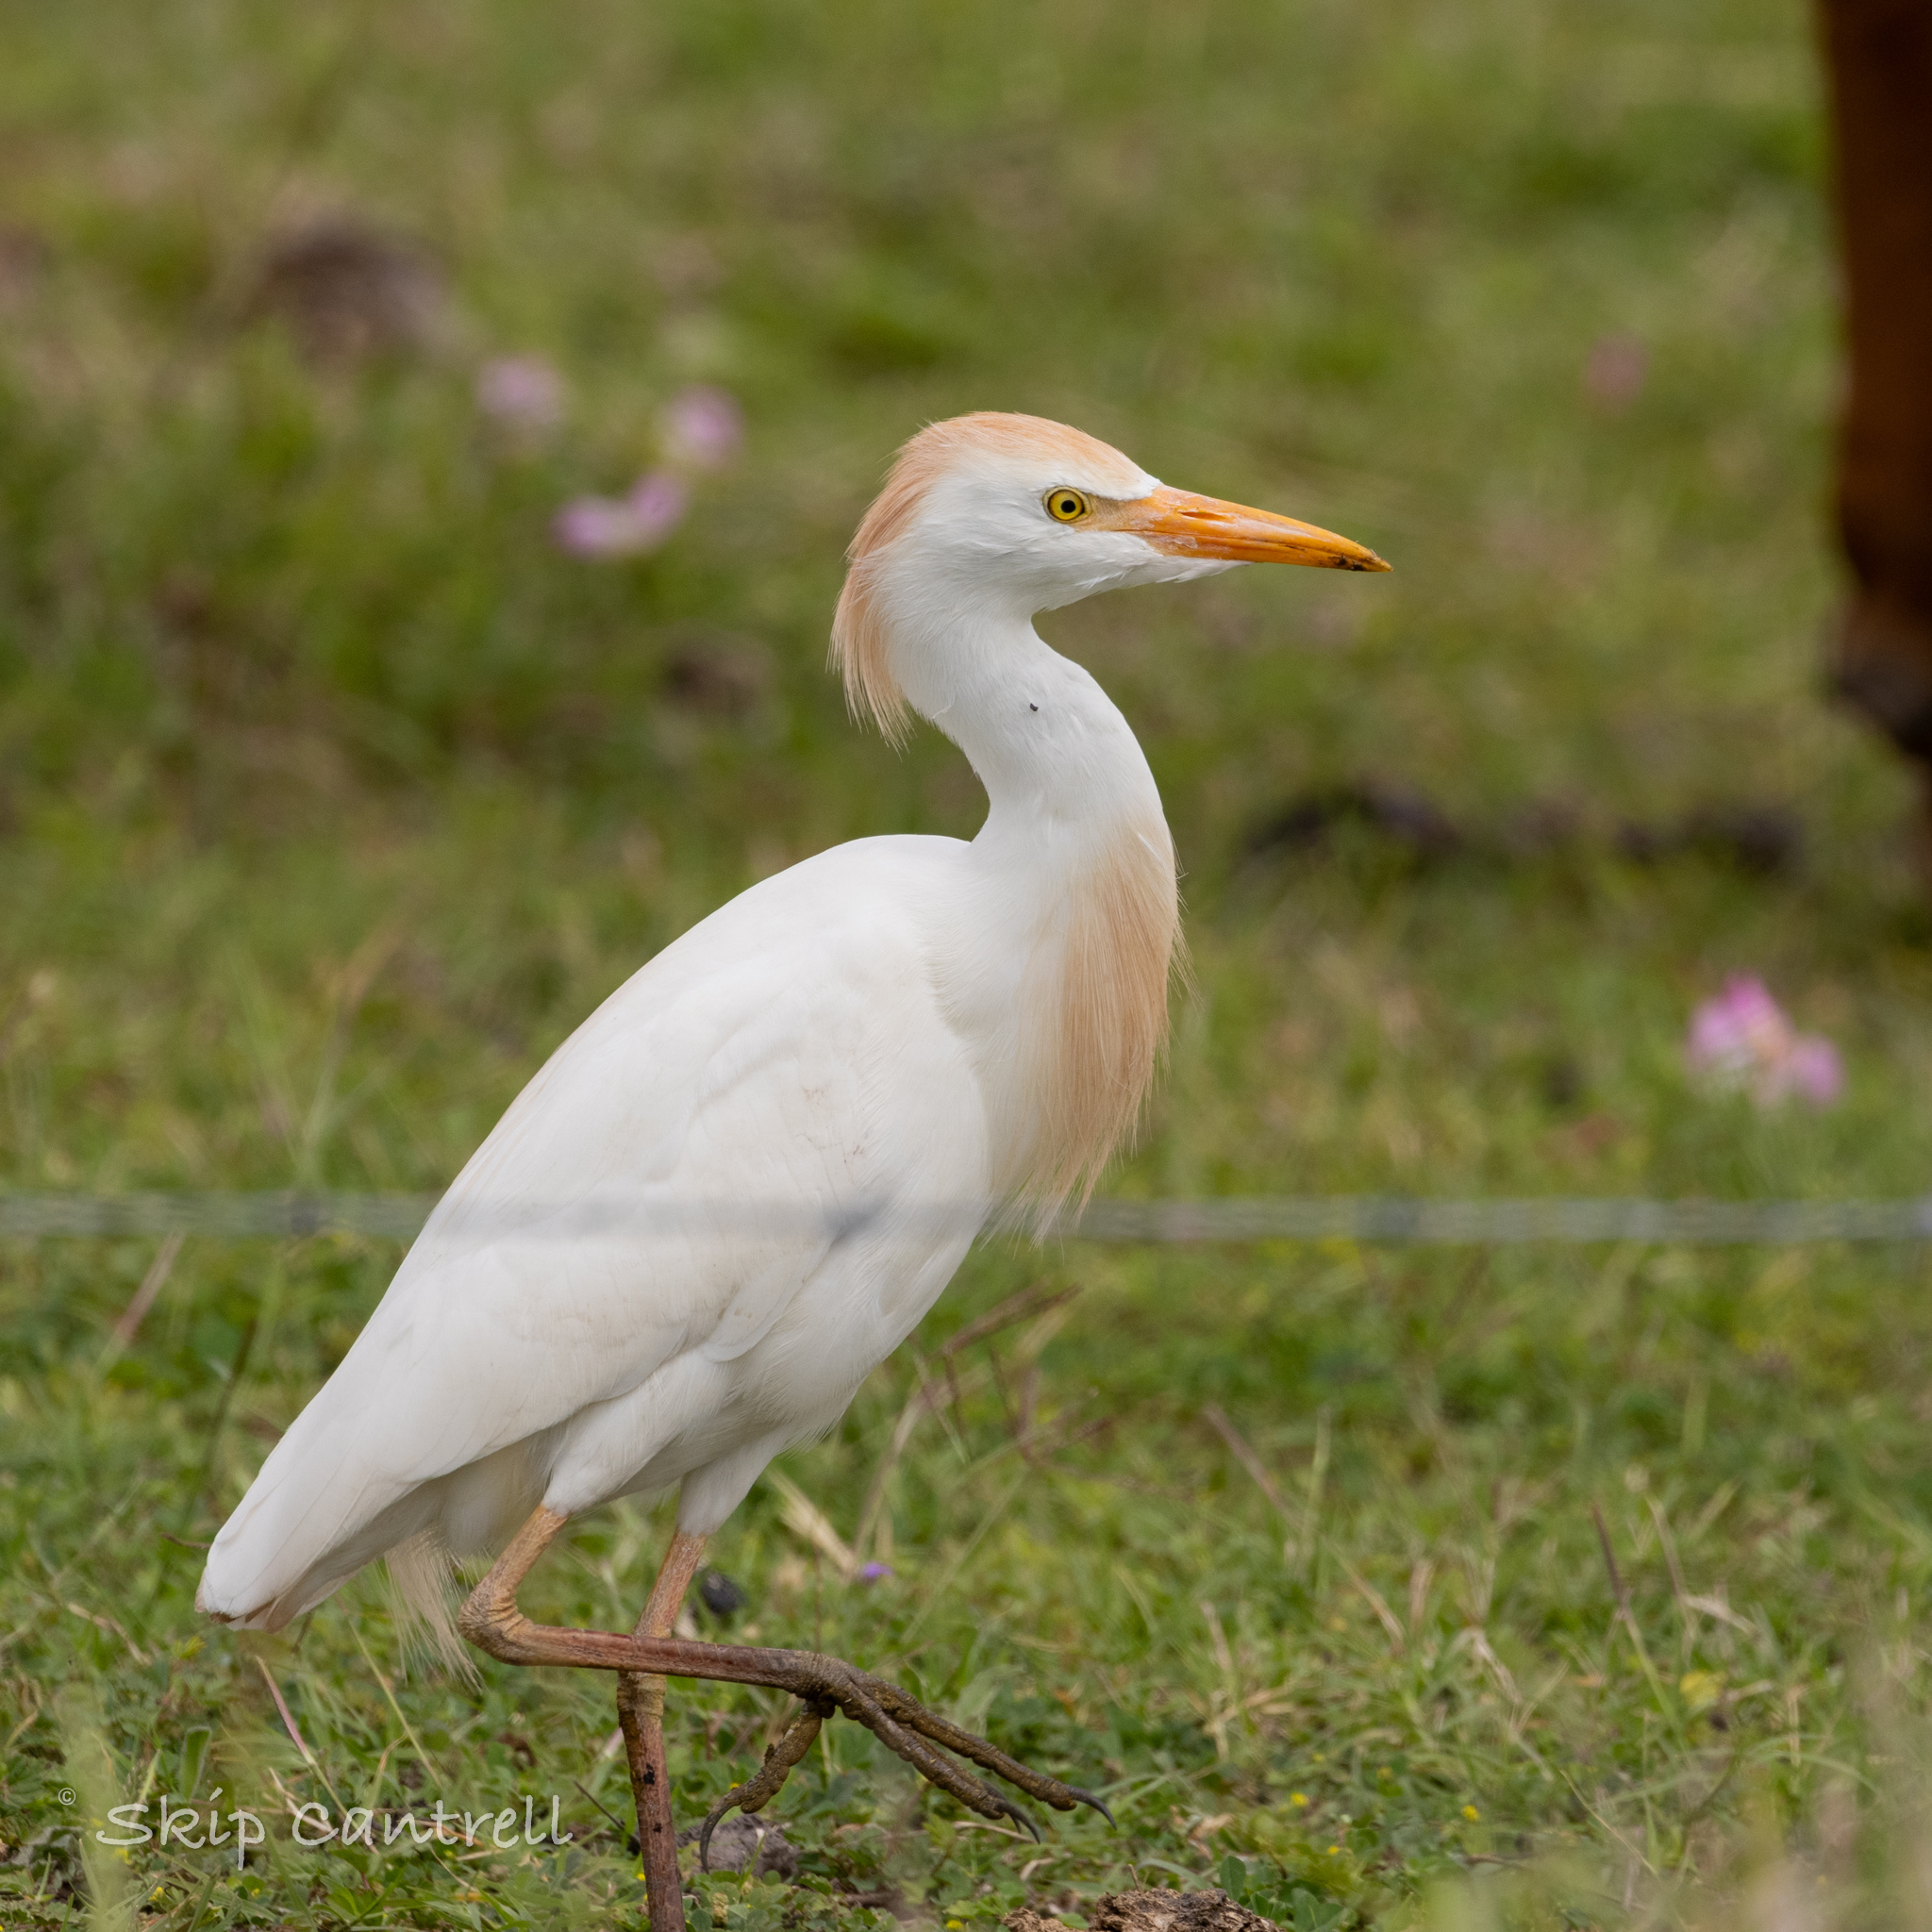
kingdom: Animalia
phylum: Chordata
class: Aves
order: Pelecaniformes
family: Ardeidae
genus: Bubulcus
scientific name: Bubulcus ibis
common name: Cattle egret
